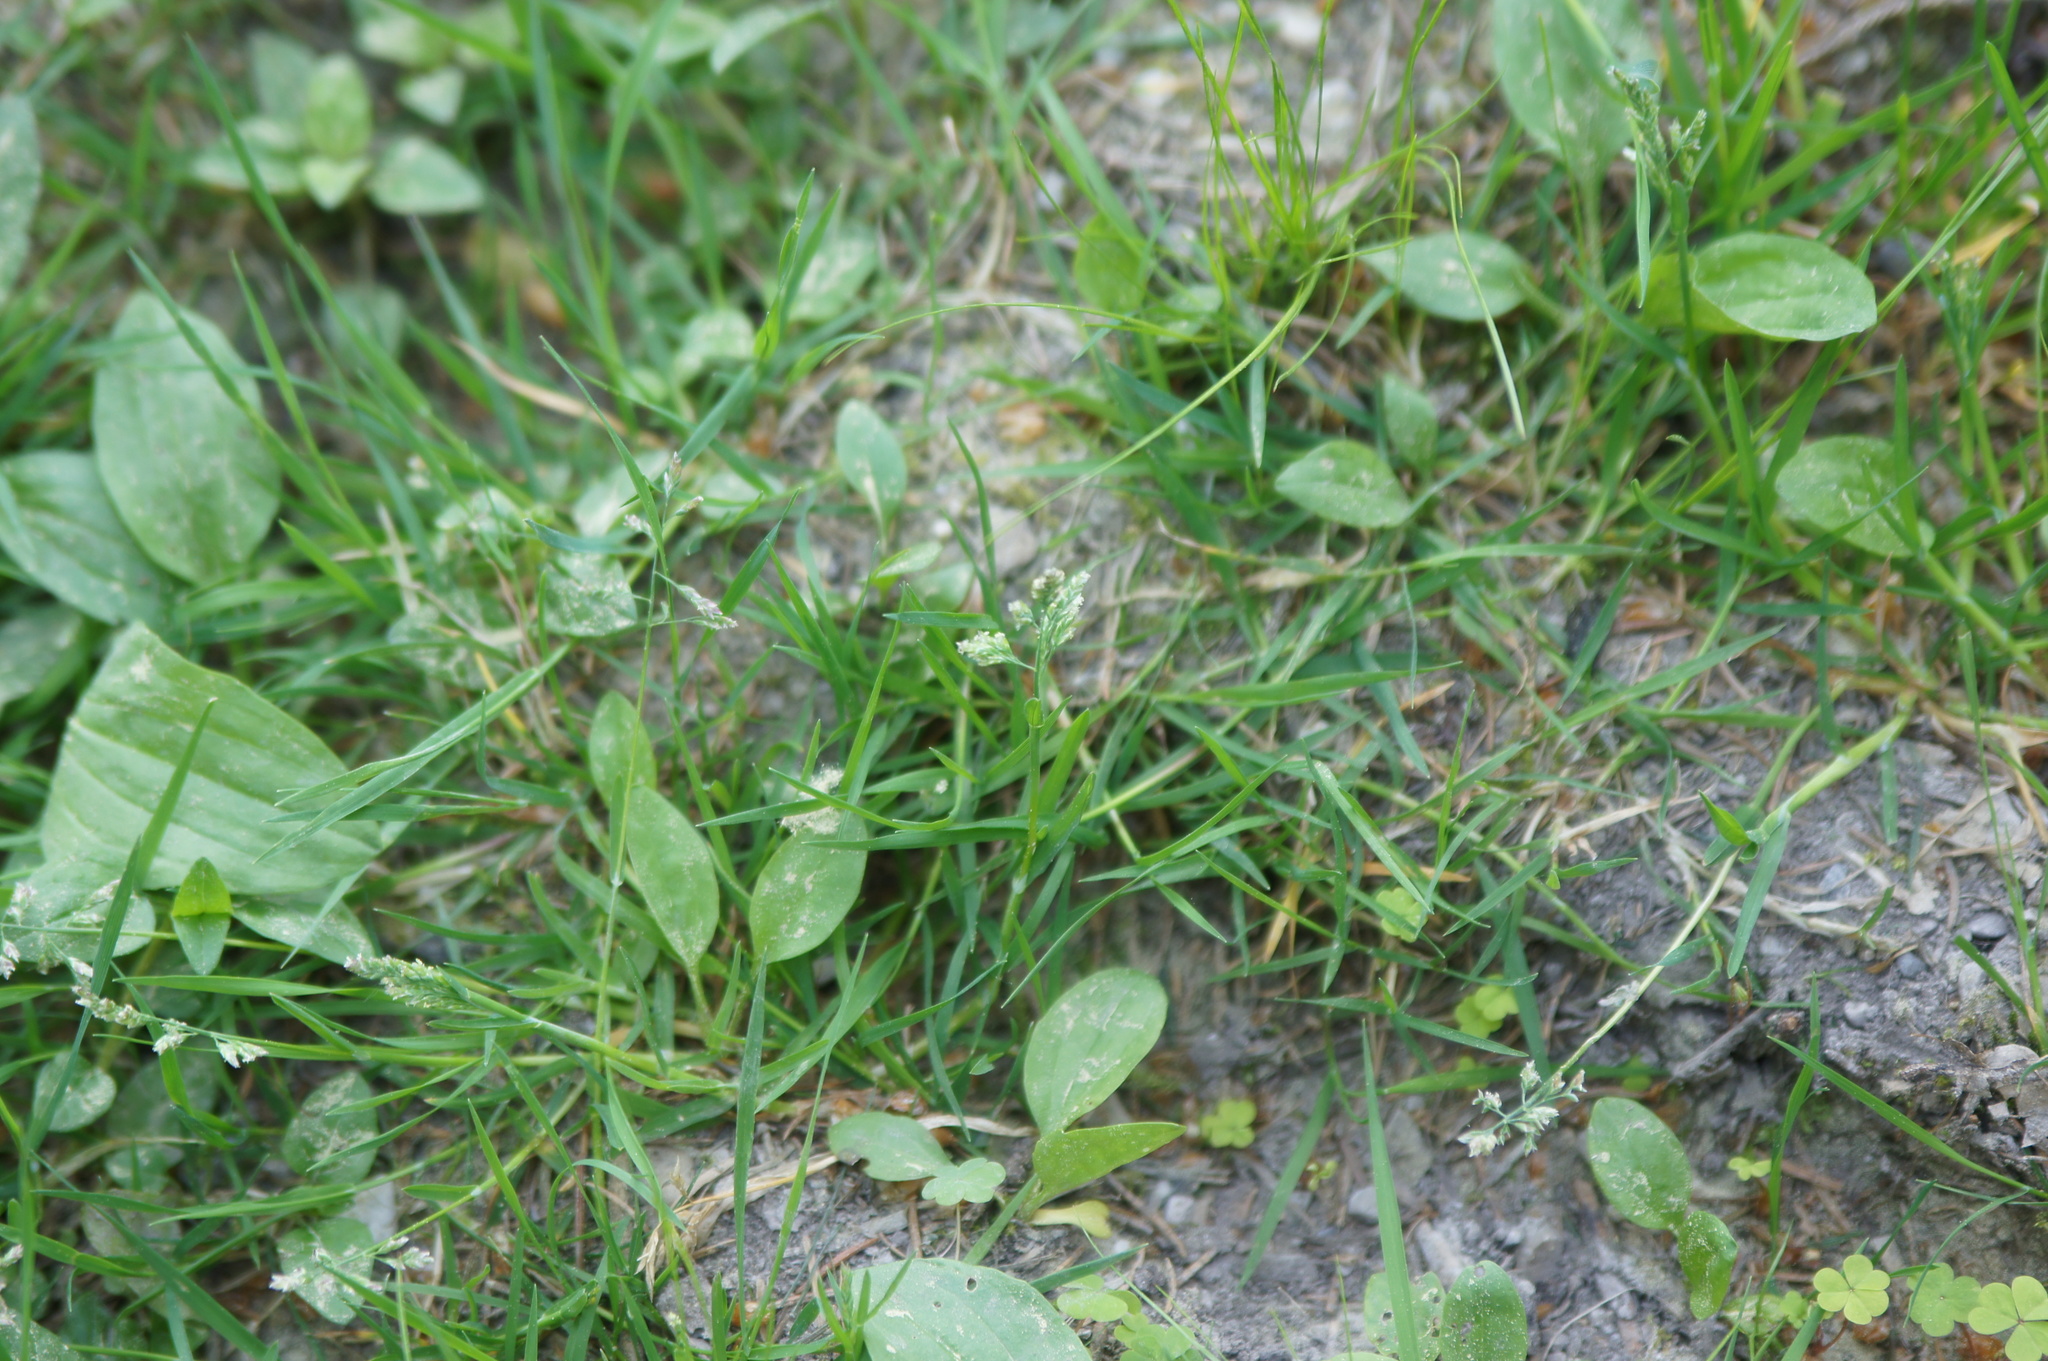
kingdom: Plantae
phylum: Tracheophyta
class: Liliopsida
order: Poales
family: Poaceae
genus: Poa
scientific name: Poa annua
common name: Annual bluegrass
